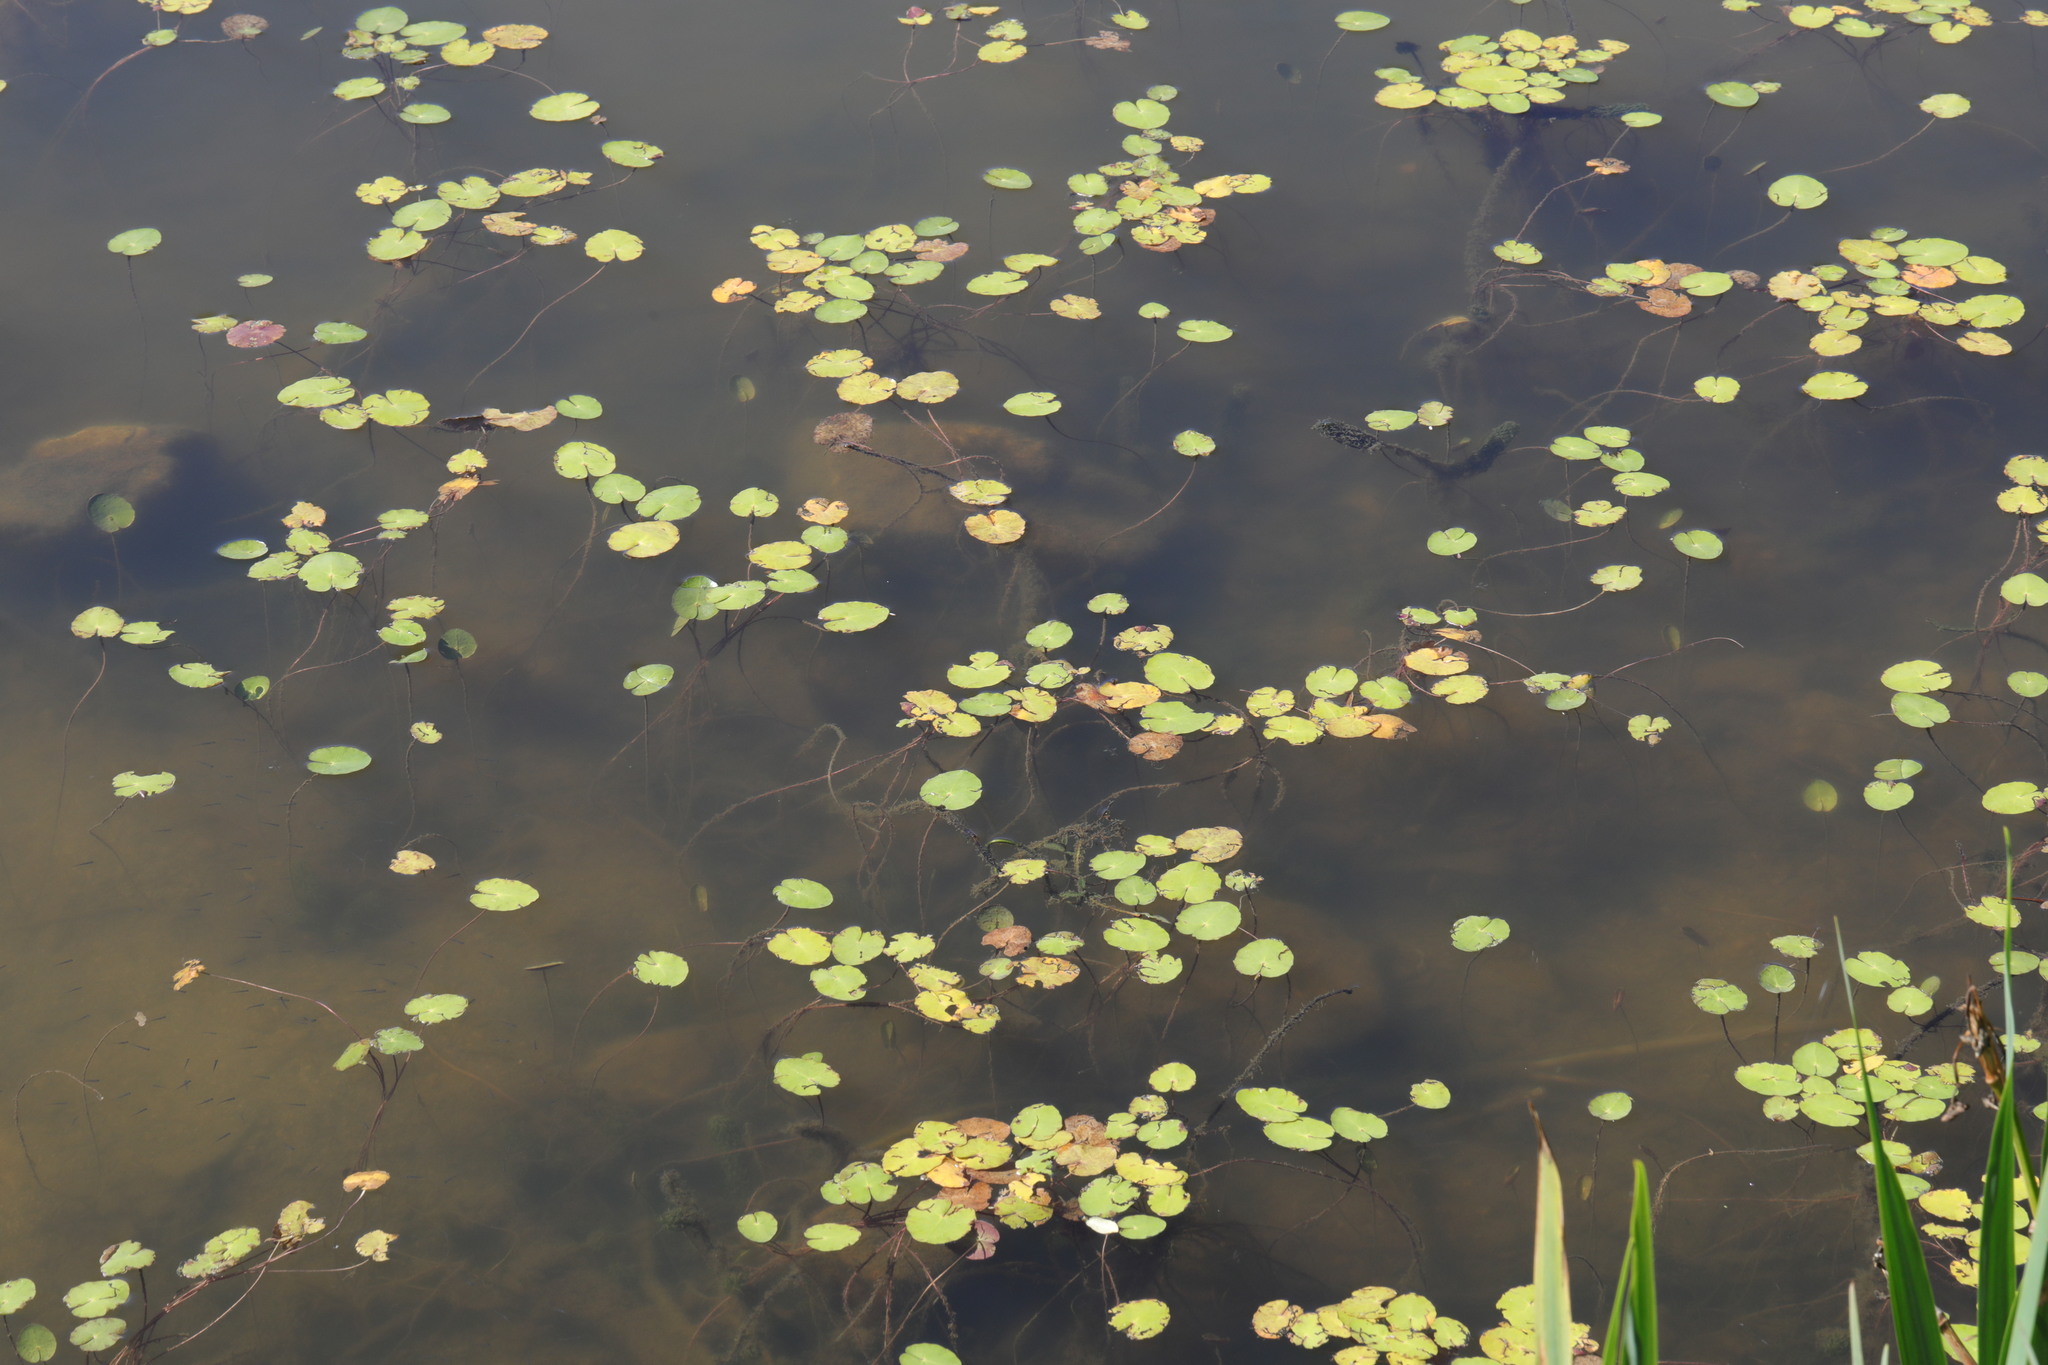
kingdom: Plantae
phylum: Tracheophyta
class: Magnoliopsida
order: Asterales
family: Menyanthaceae
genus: Nymphoides
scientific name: Nymphoides peltata
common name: Fringed water-lily
